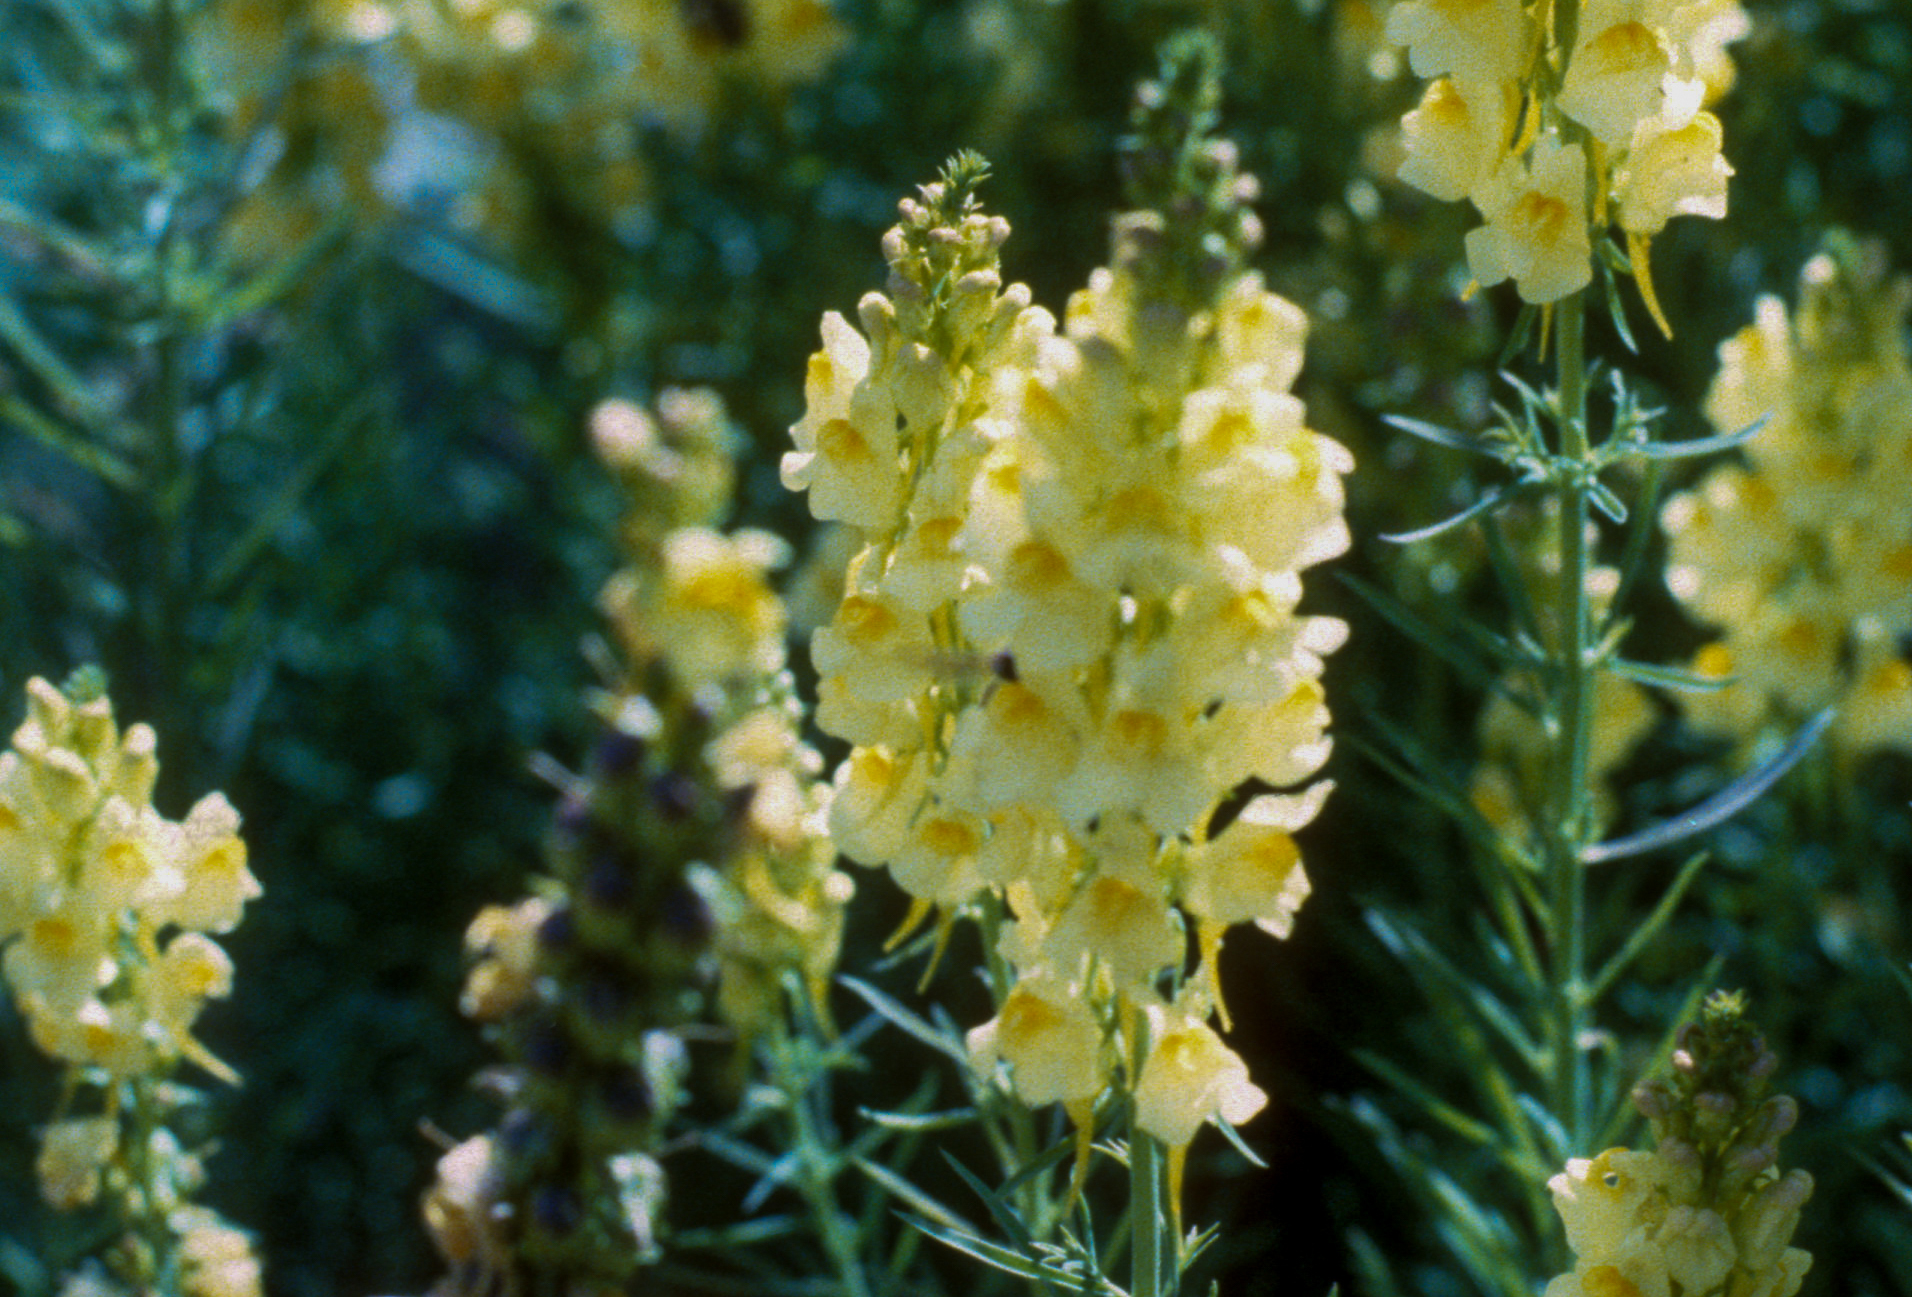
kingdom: Plantae
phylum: Tracheophyta
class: Magnoliopsida
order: Lamiales
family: Plantaginaceae
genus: Linaria
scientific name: Linaria vulgaris
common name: Butter and eggs
